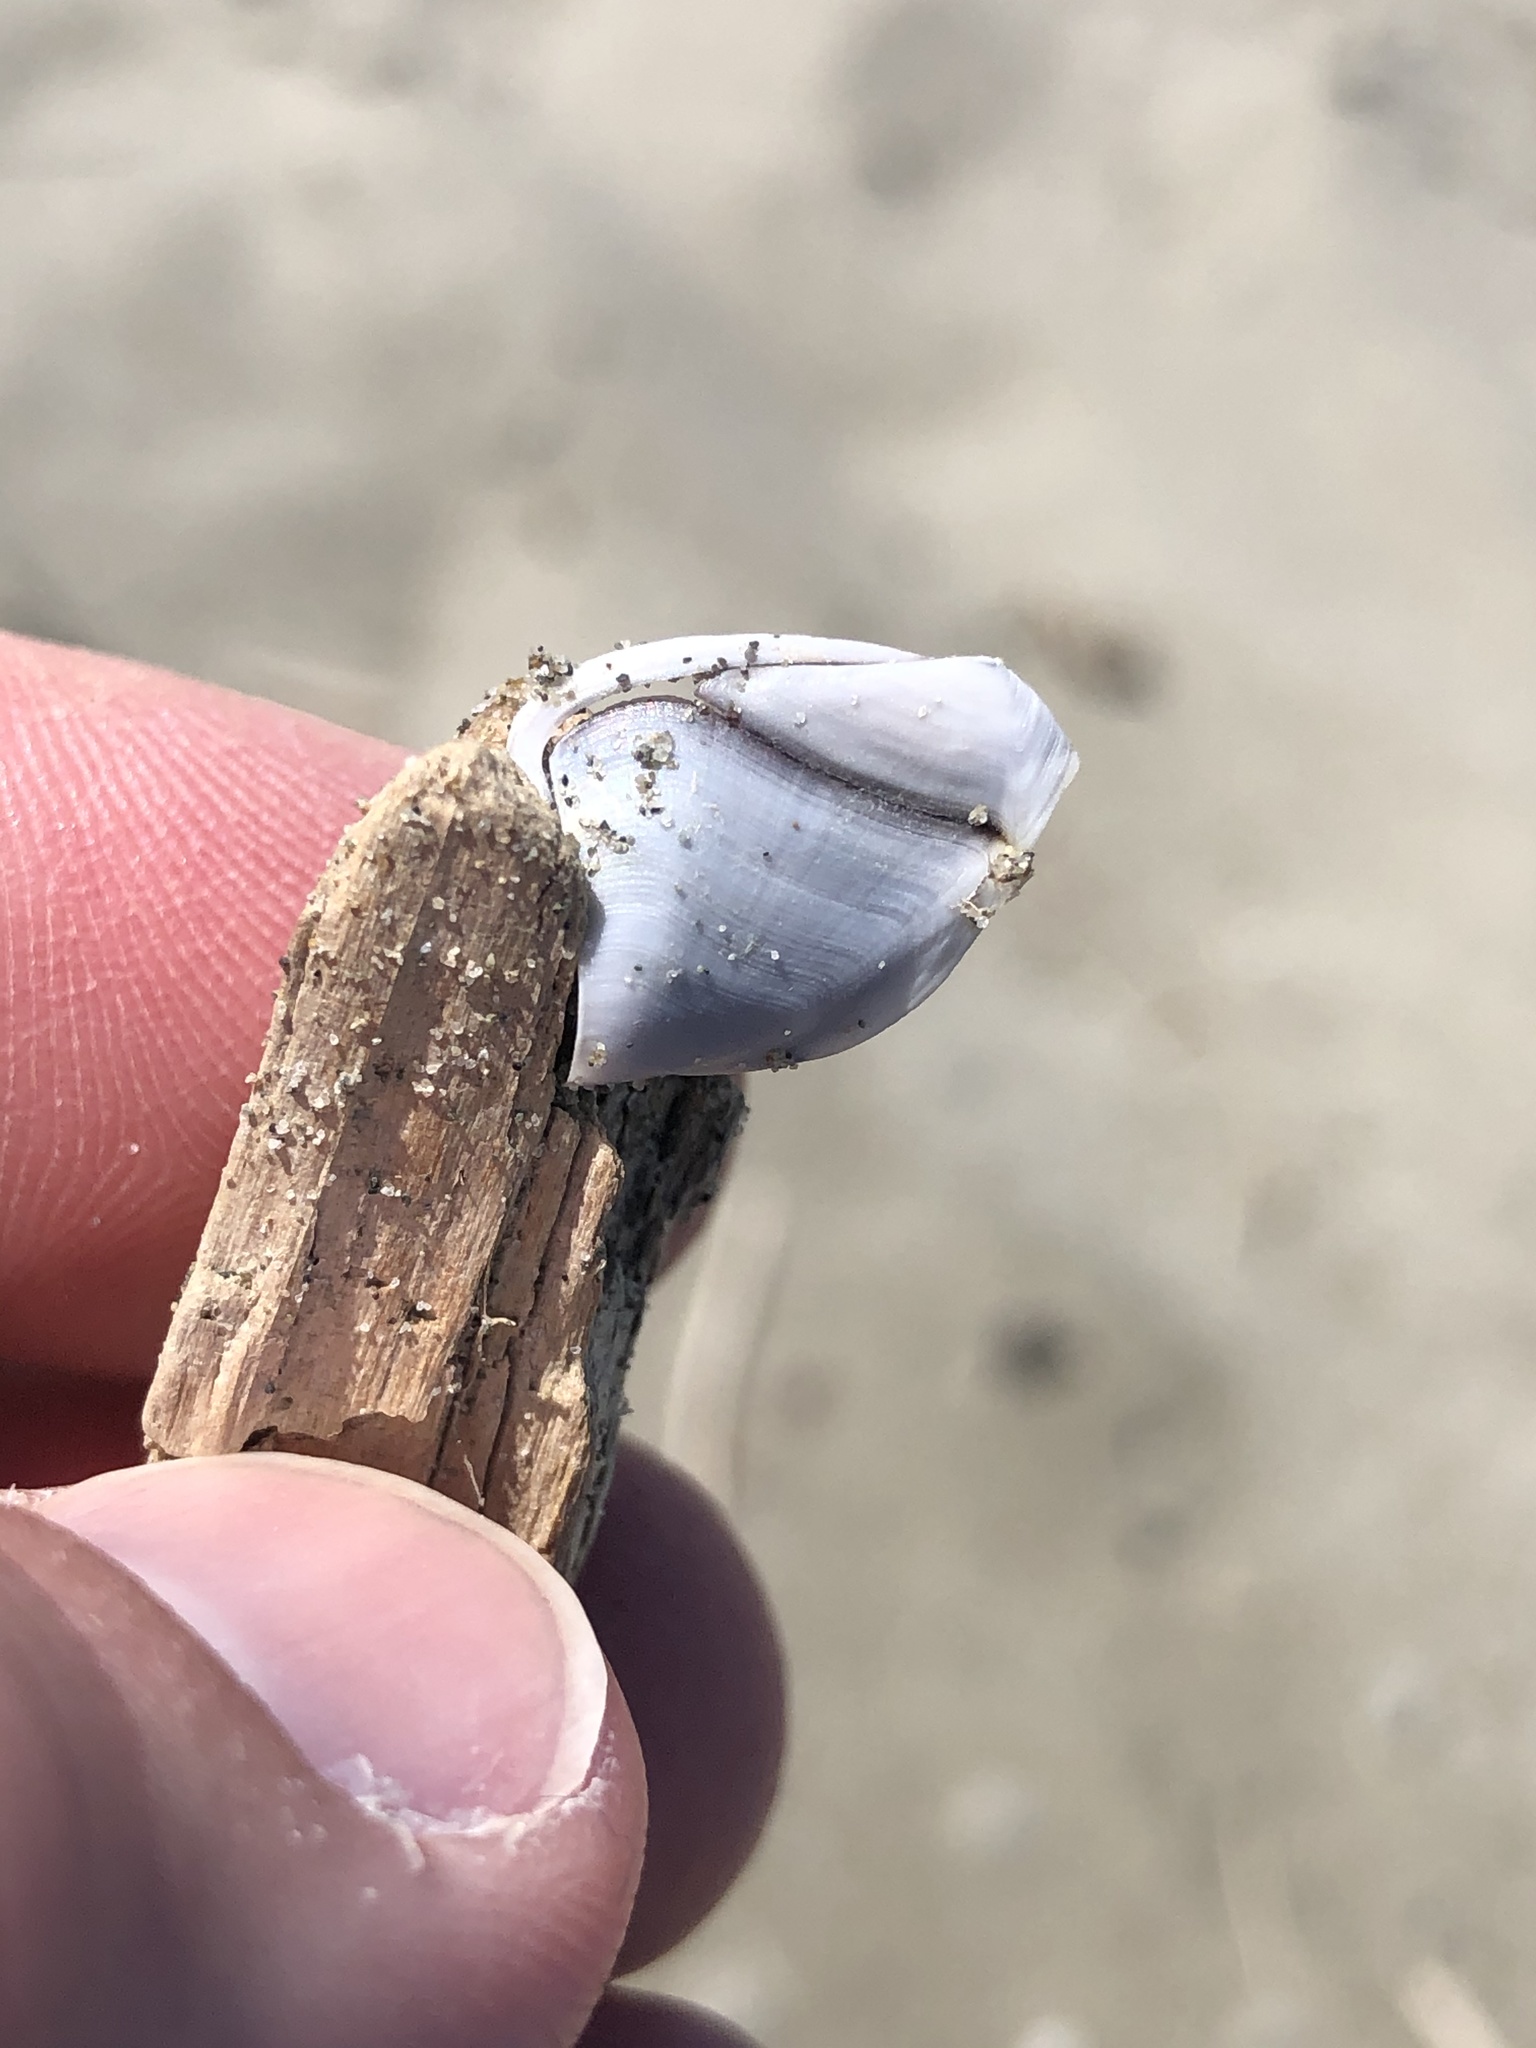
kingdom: Animalia
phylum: Arthropoda
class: Maxillopoda
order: Pedunculata
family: Lepadidae
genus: Lepas
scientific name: Lepas australis
